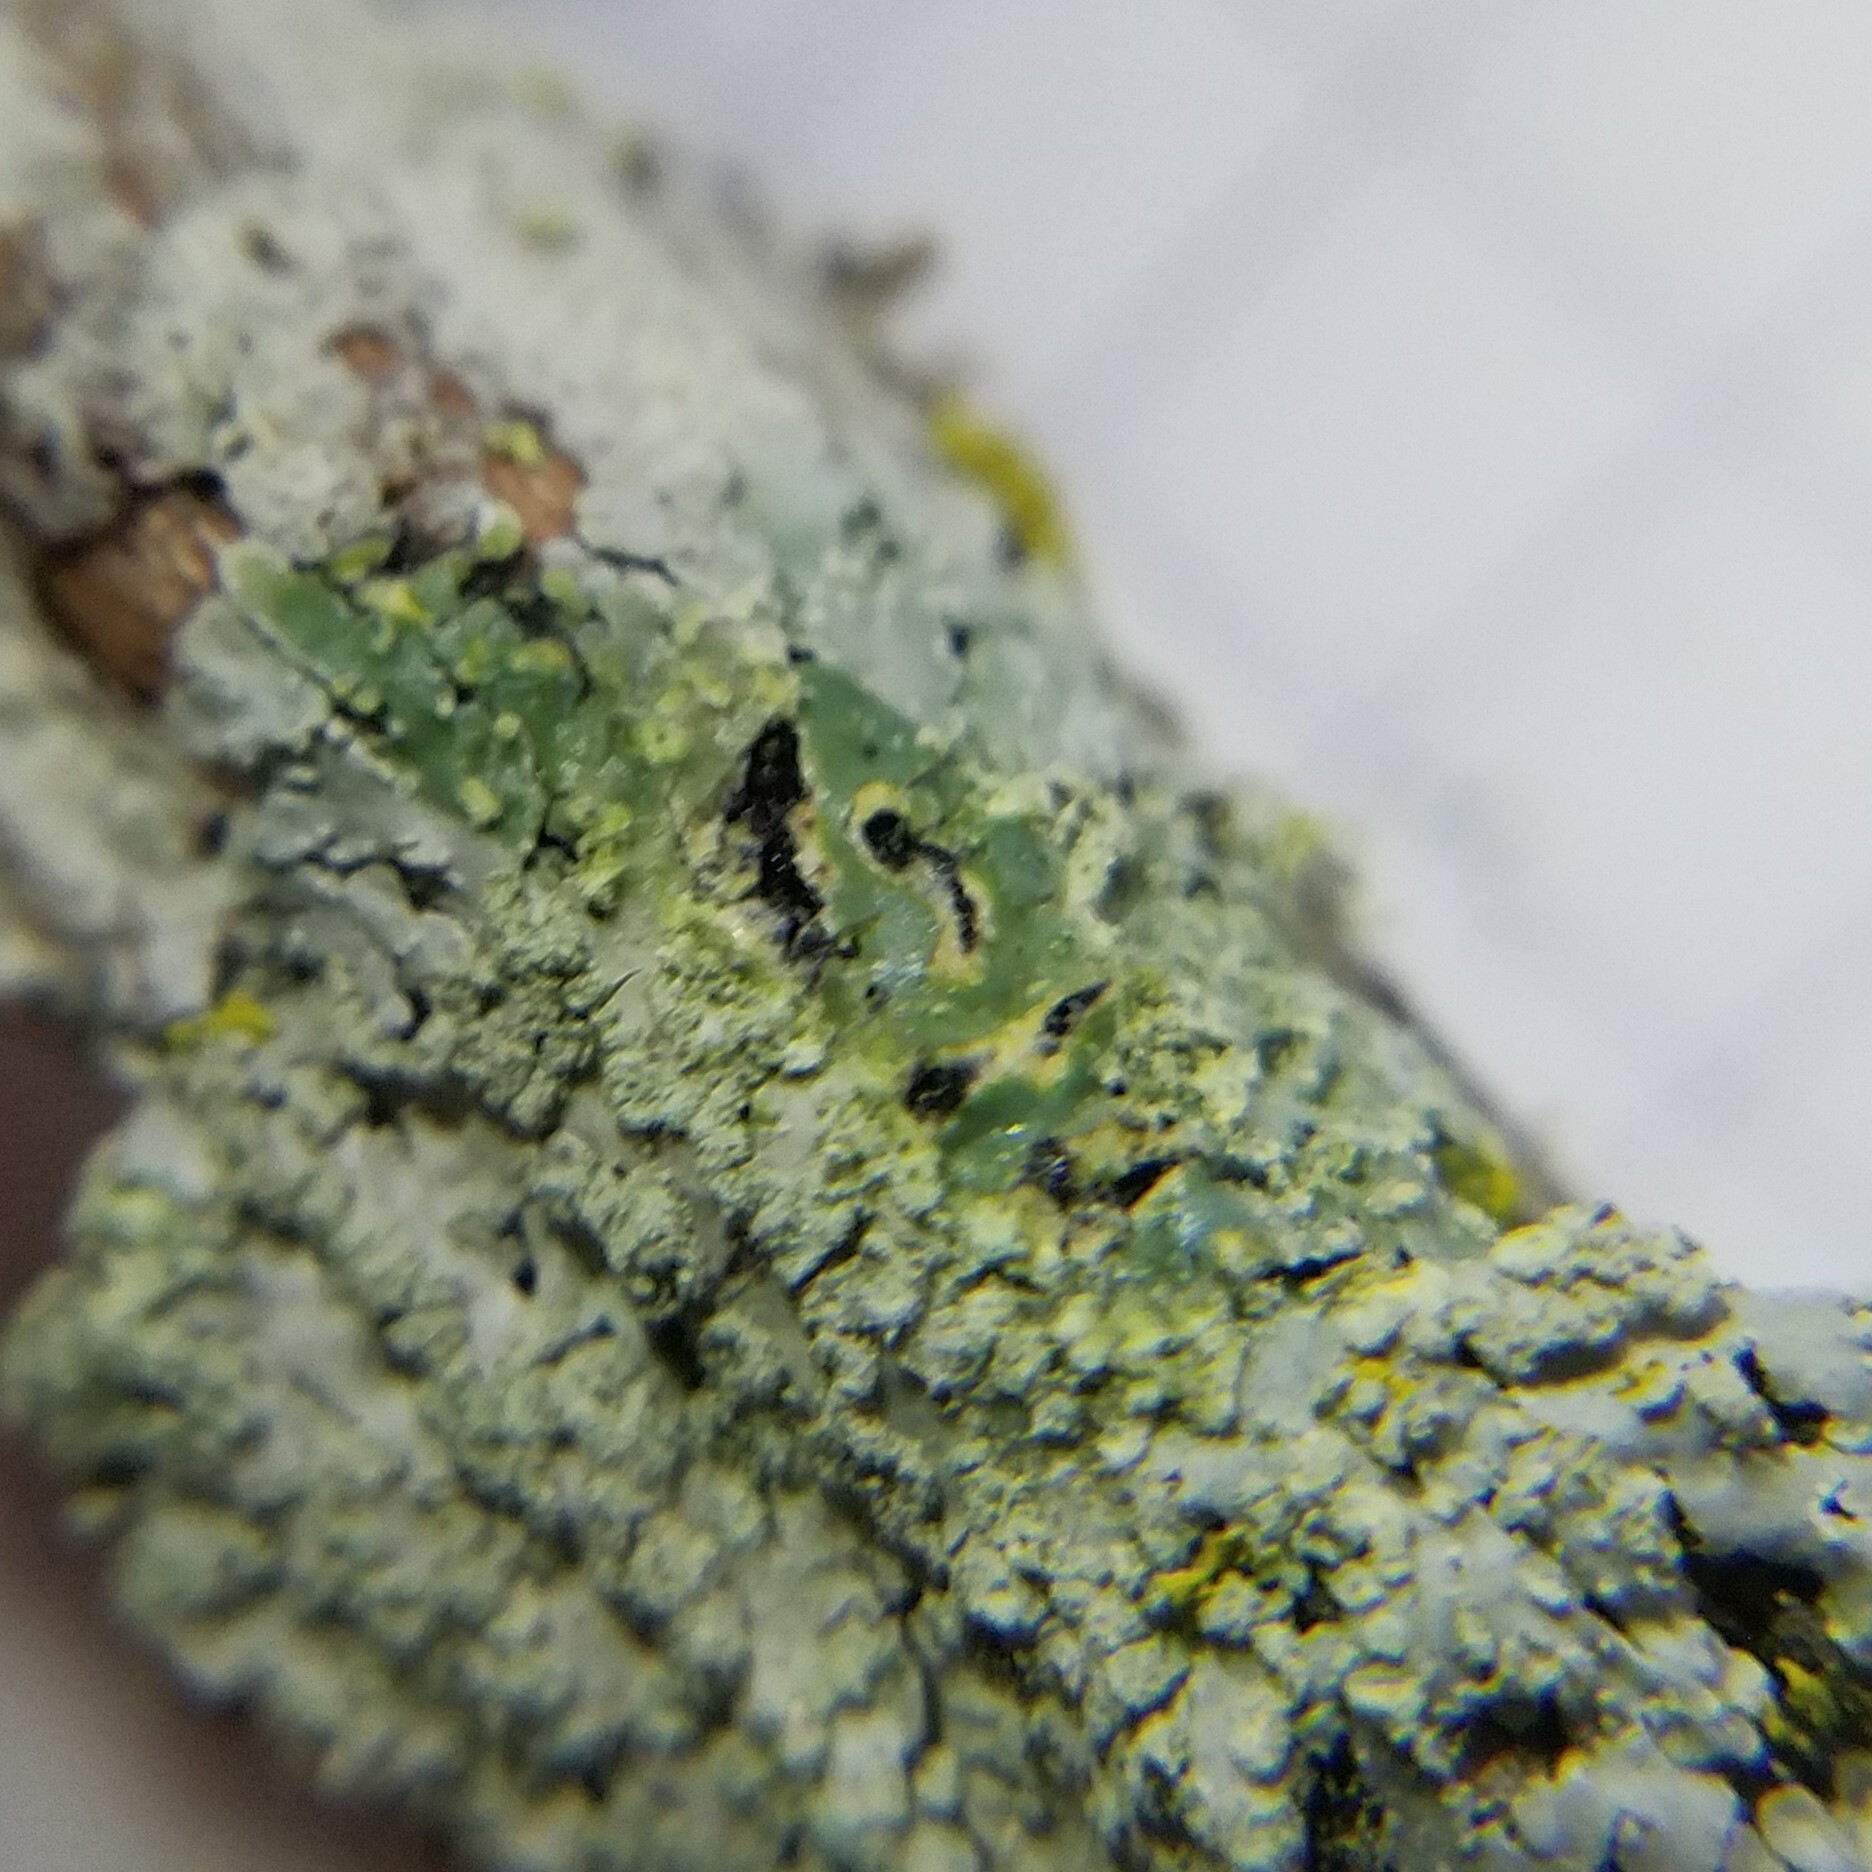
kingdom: Fungi
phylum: Ascomycota
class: Lecanoromycetes
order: Caliciales
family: Caliciaceae
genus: Pyxine
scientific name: Pyxine subcinerea
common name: Mustard lichen
